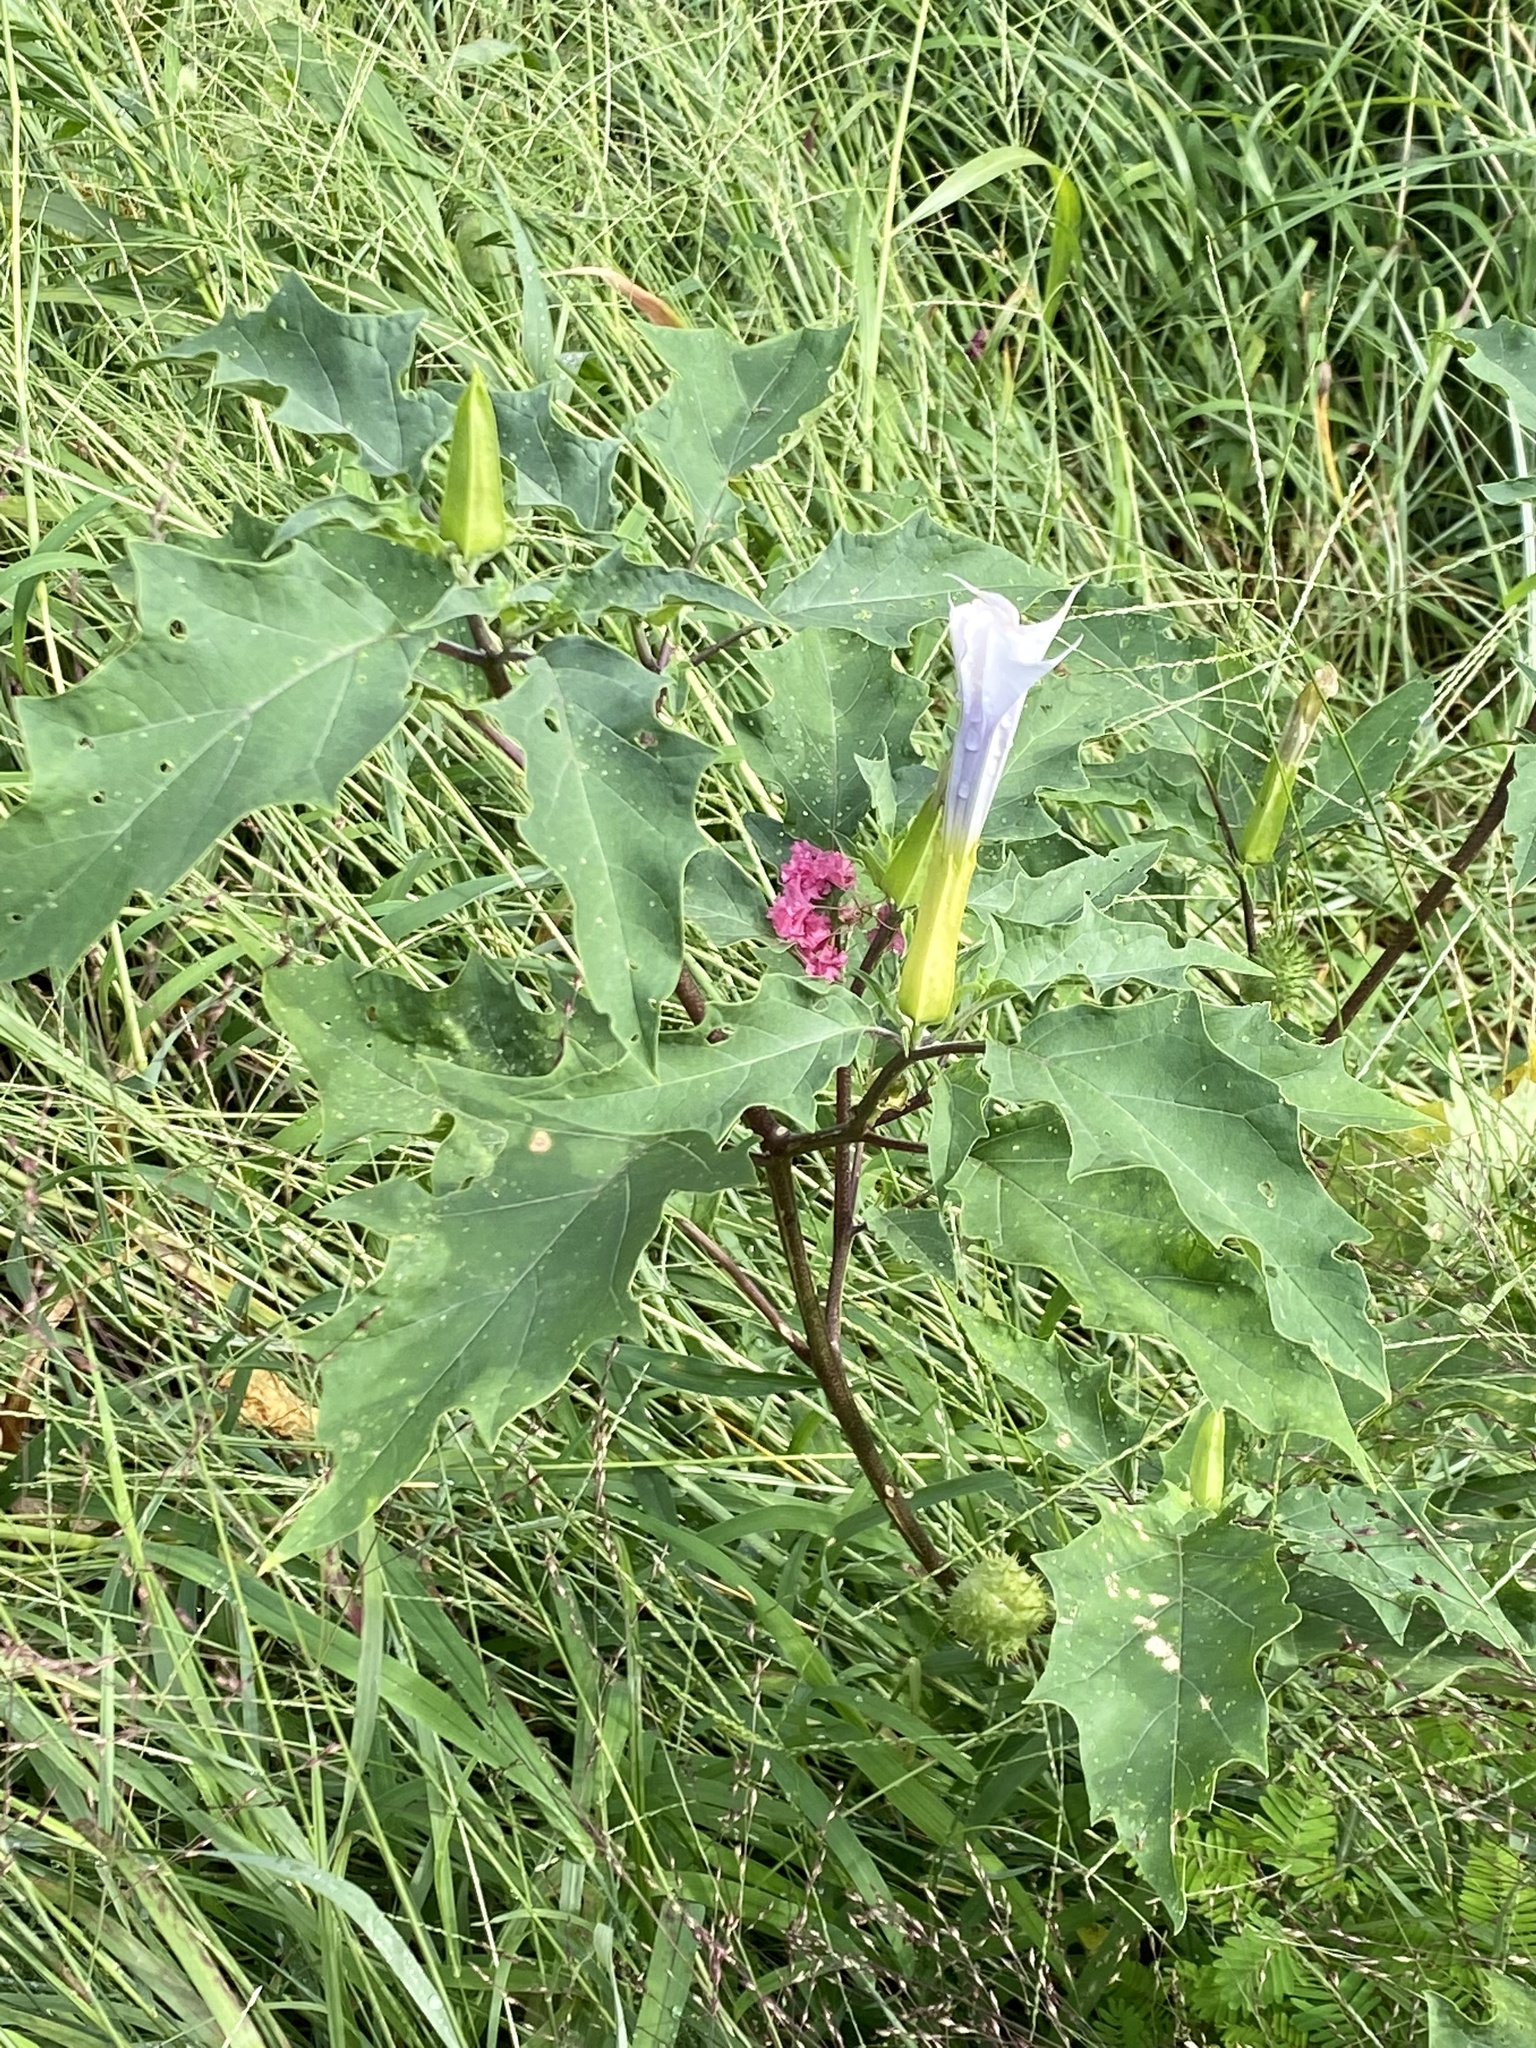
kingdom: Plantae
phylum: Tracheophyta
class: Magnoliopsida
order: Solanales
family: Solanaceae
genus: Datura
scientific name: Datura stramonium
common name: Thorn-apple
